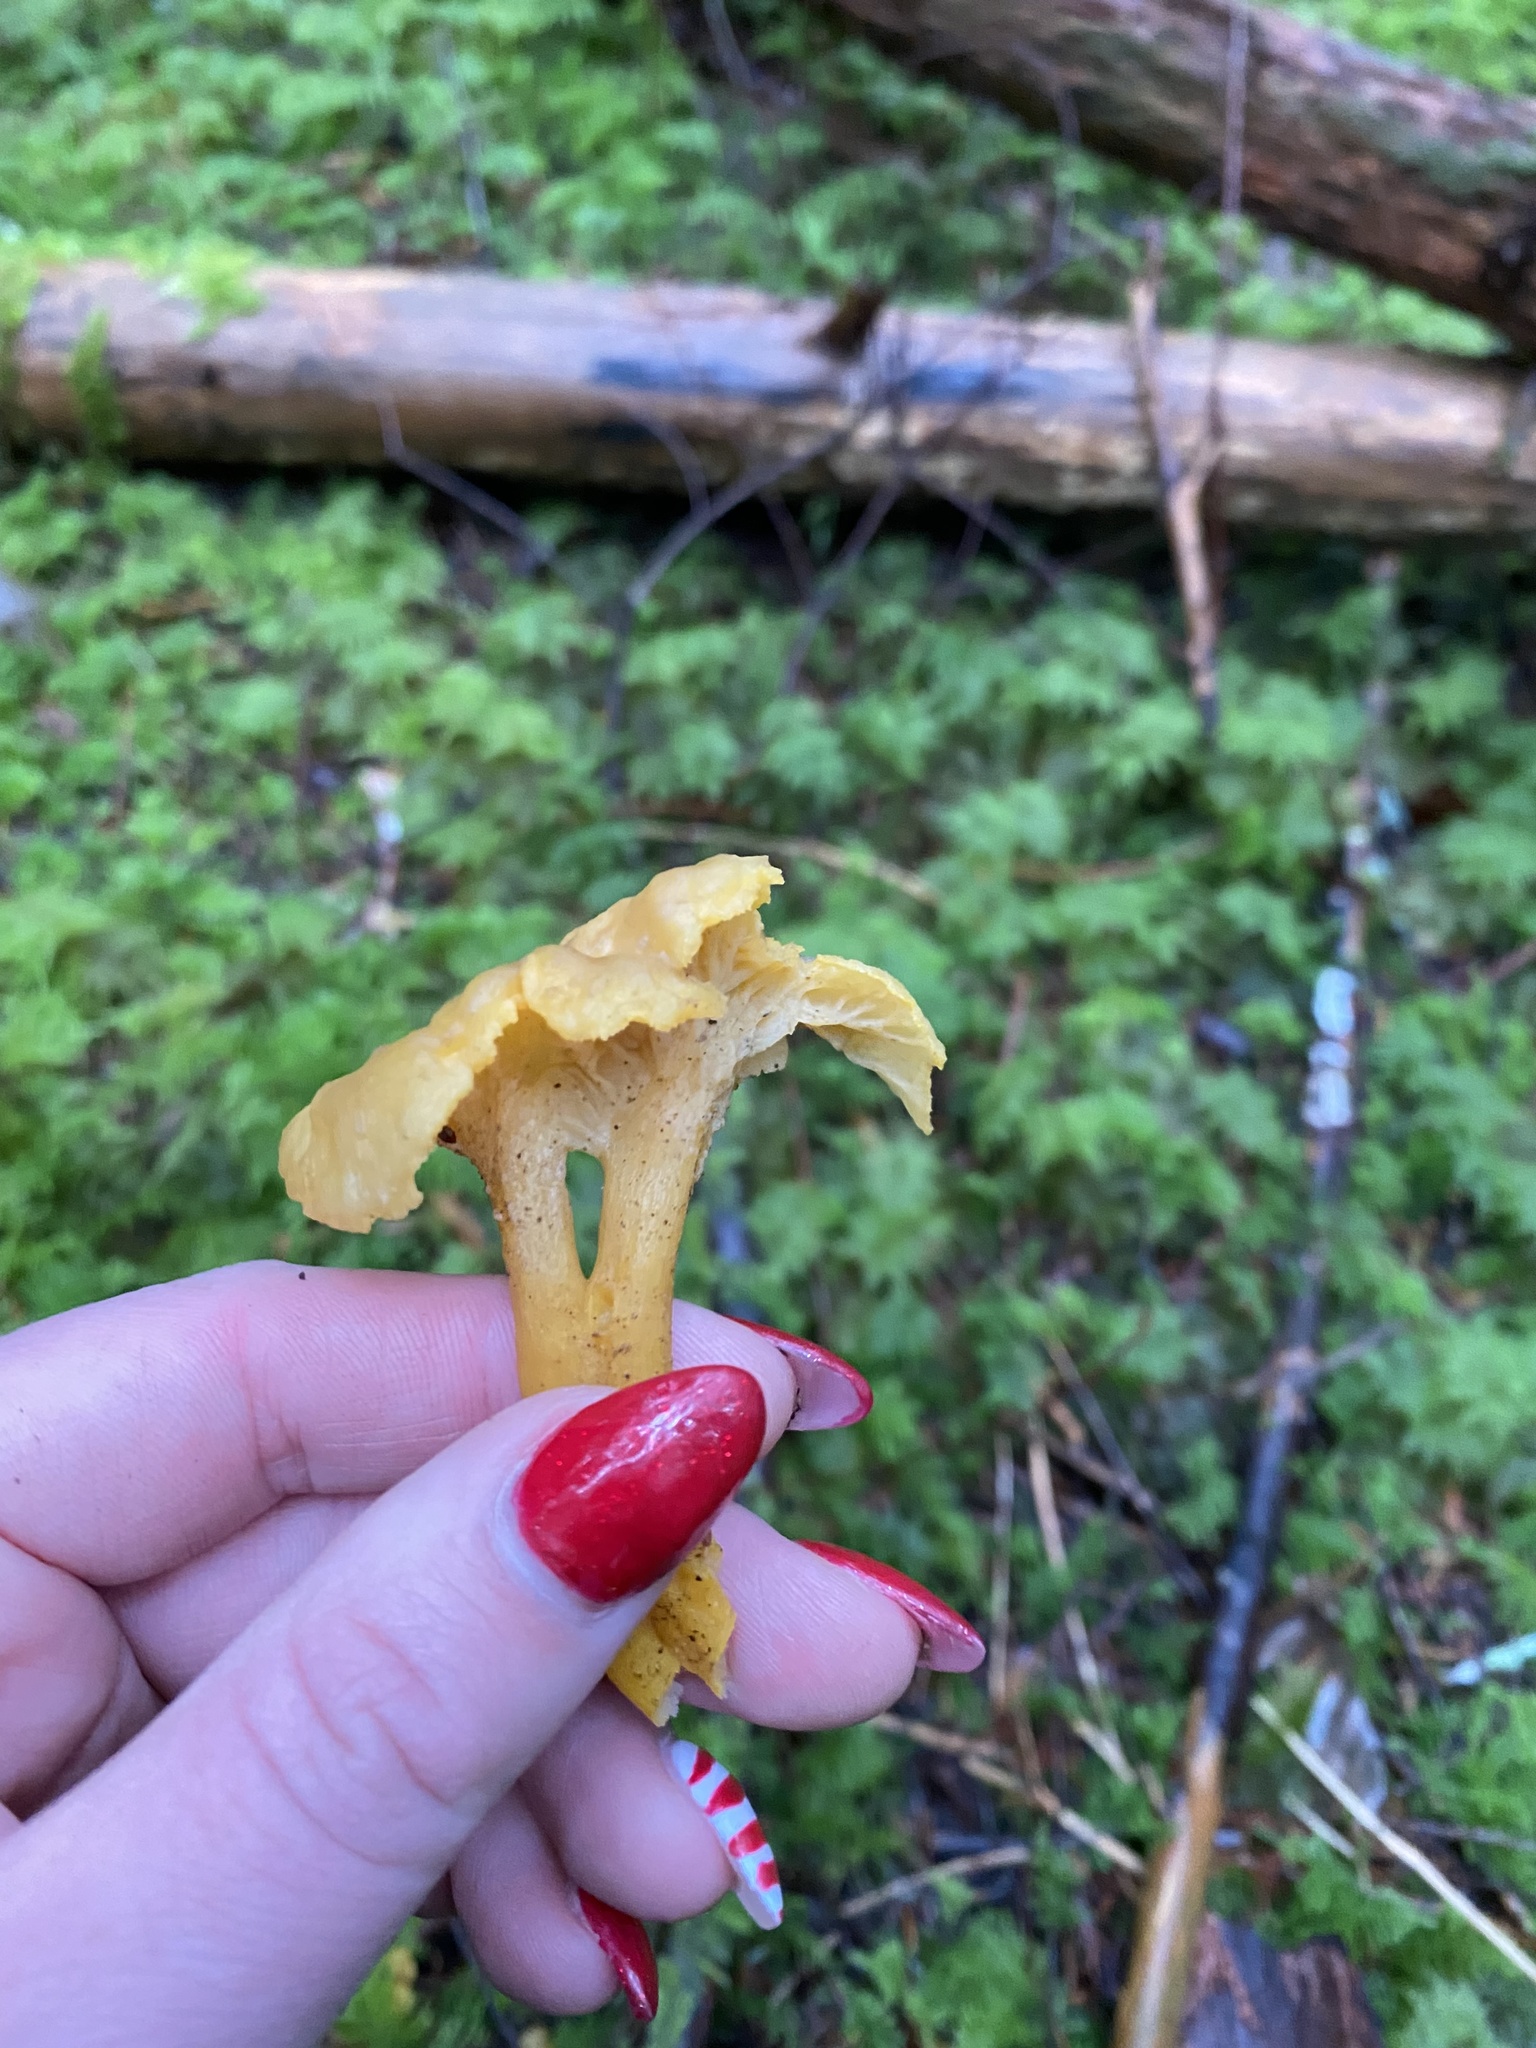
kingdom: Fungi
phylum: Basidiomycota
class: Agaricomycetes
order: Cantharellales
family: Hydnaceae
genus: Craterellus
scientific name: Craterellus tubaeformis
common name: Yellowfoot
